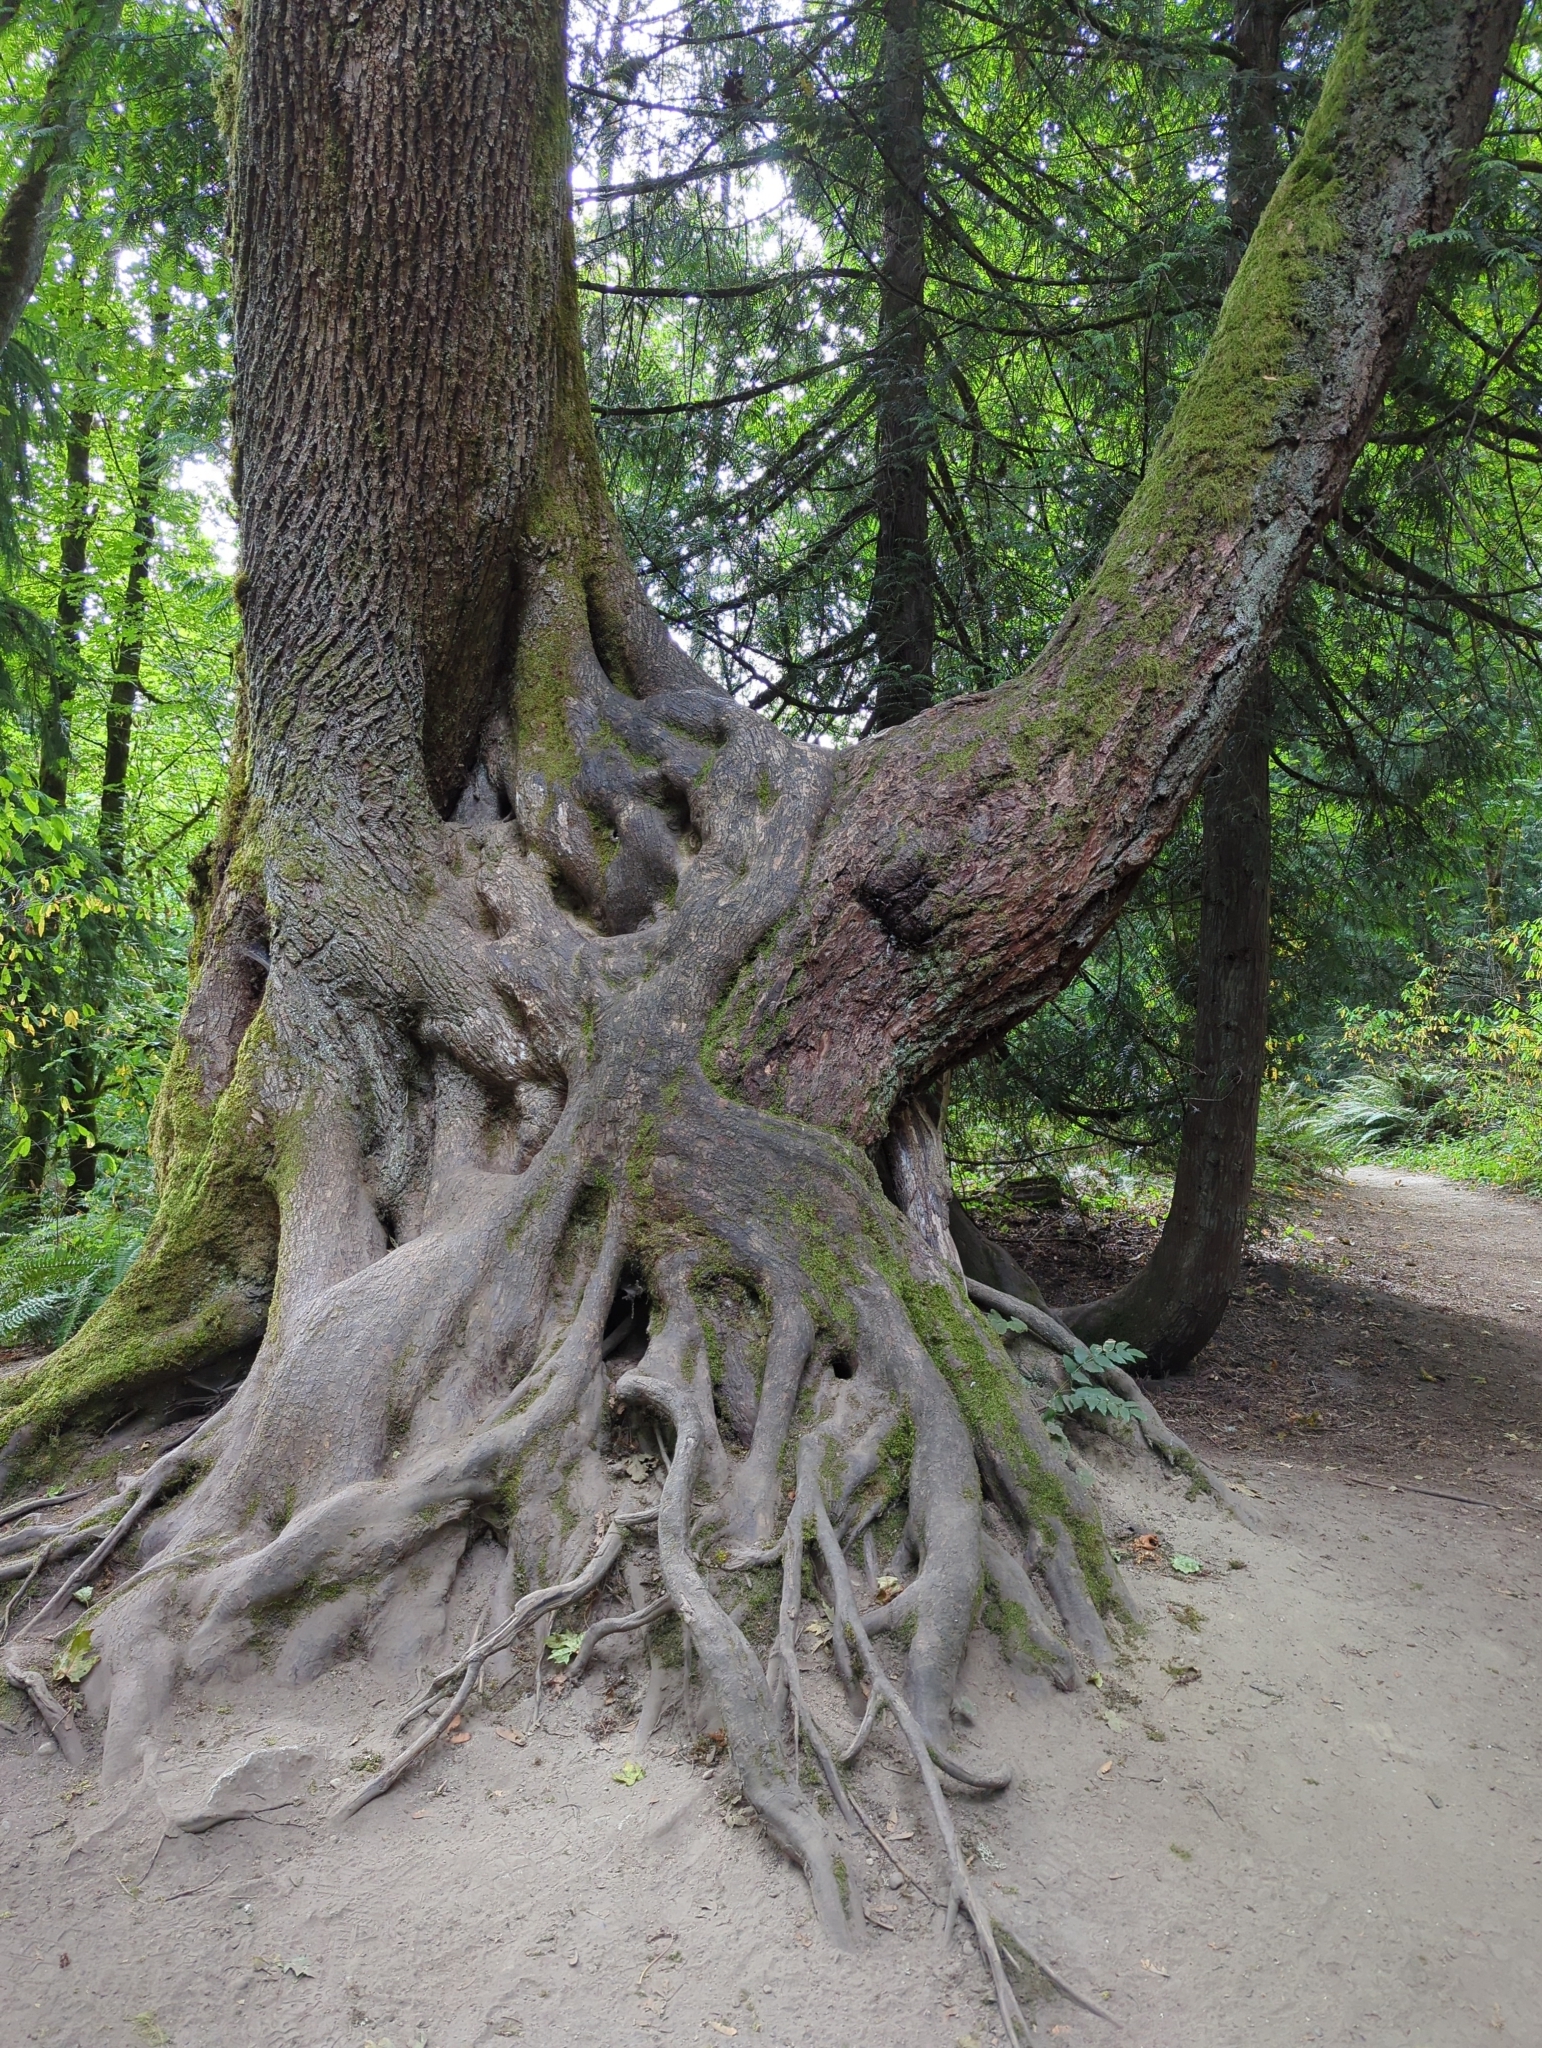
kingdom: Plantae
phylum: Tracheophyta
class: Pinopsida
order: Pinales
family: Pinaceae
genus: Pseudotsuga
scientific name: Pseudotsuga menziesii
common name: Douglas fir
